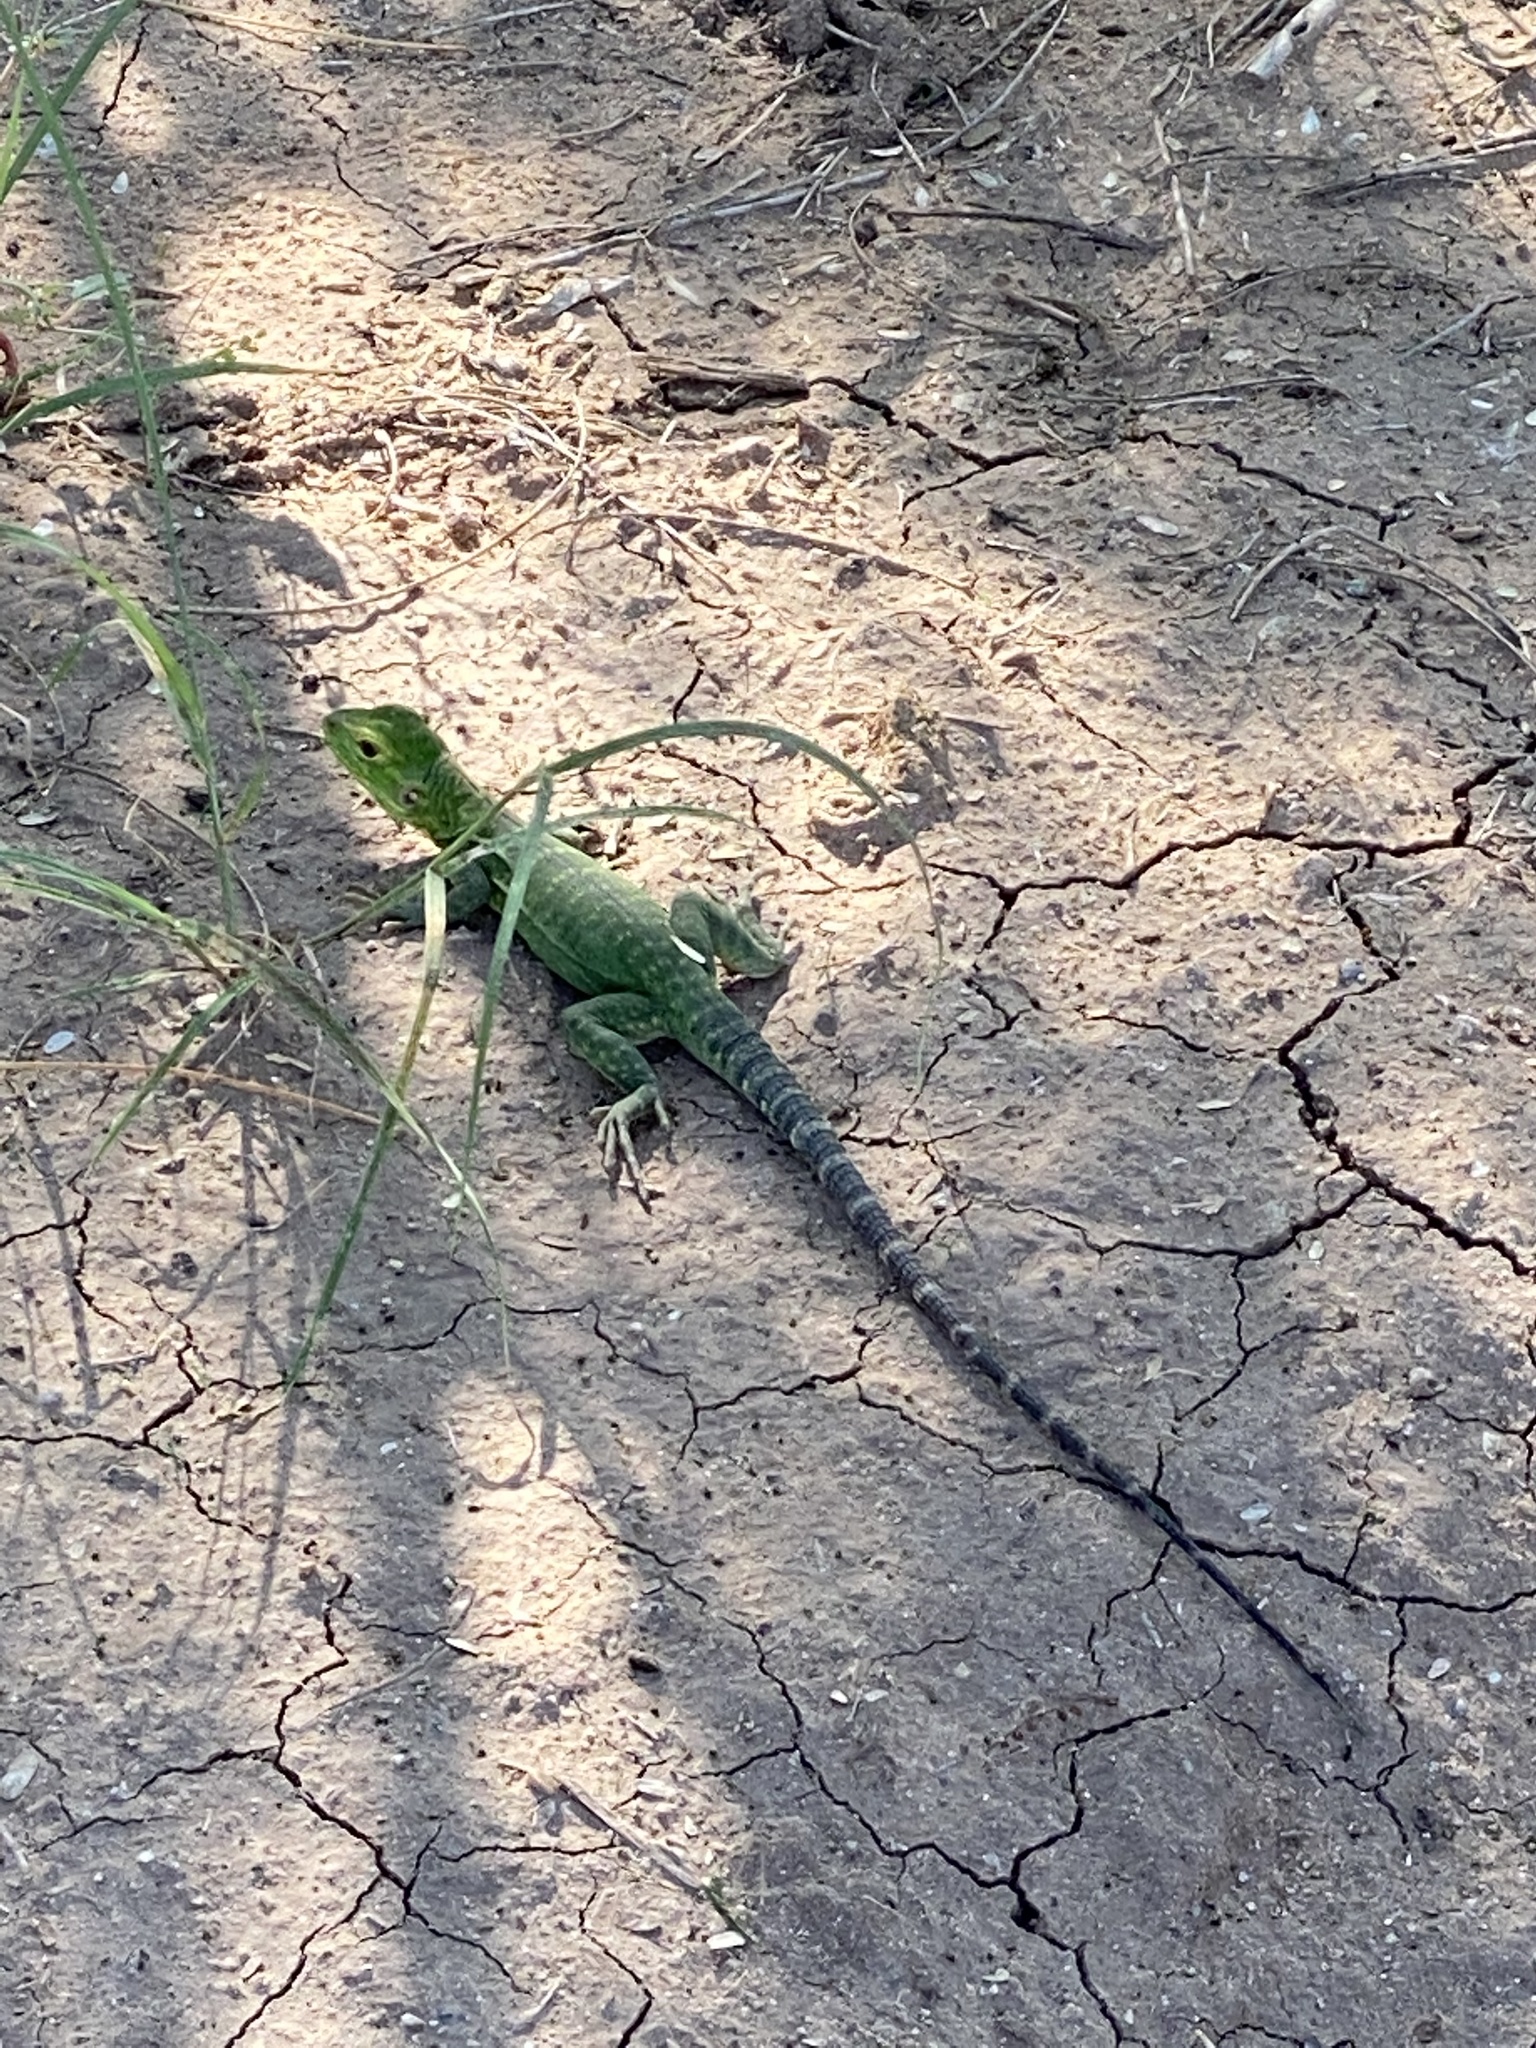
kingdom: Animalia
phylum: Chordata
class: Squamata
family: Iguanidae
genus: Ctenosaura
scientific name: Ctenosaura macrolopha
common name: Cape spinytail iguana
